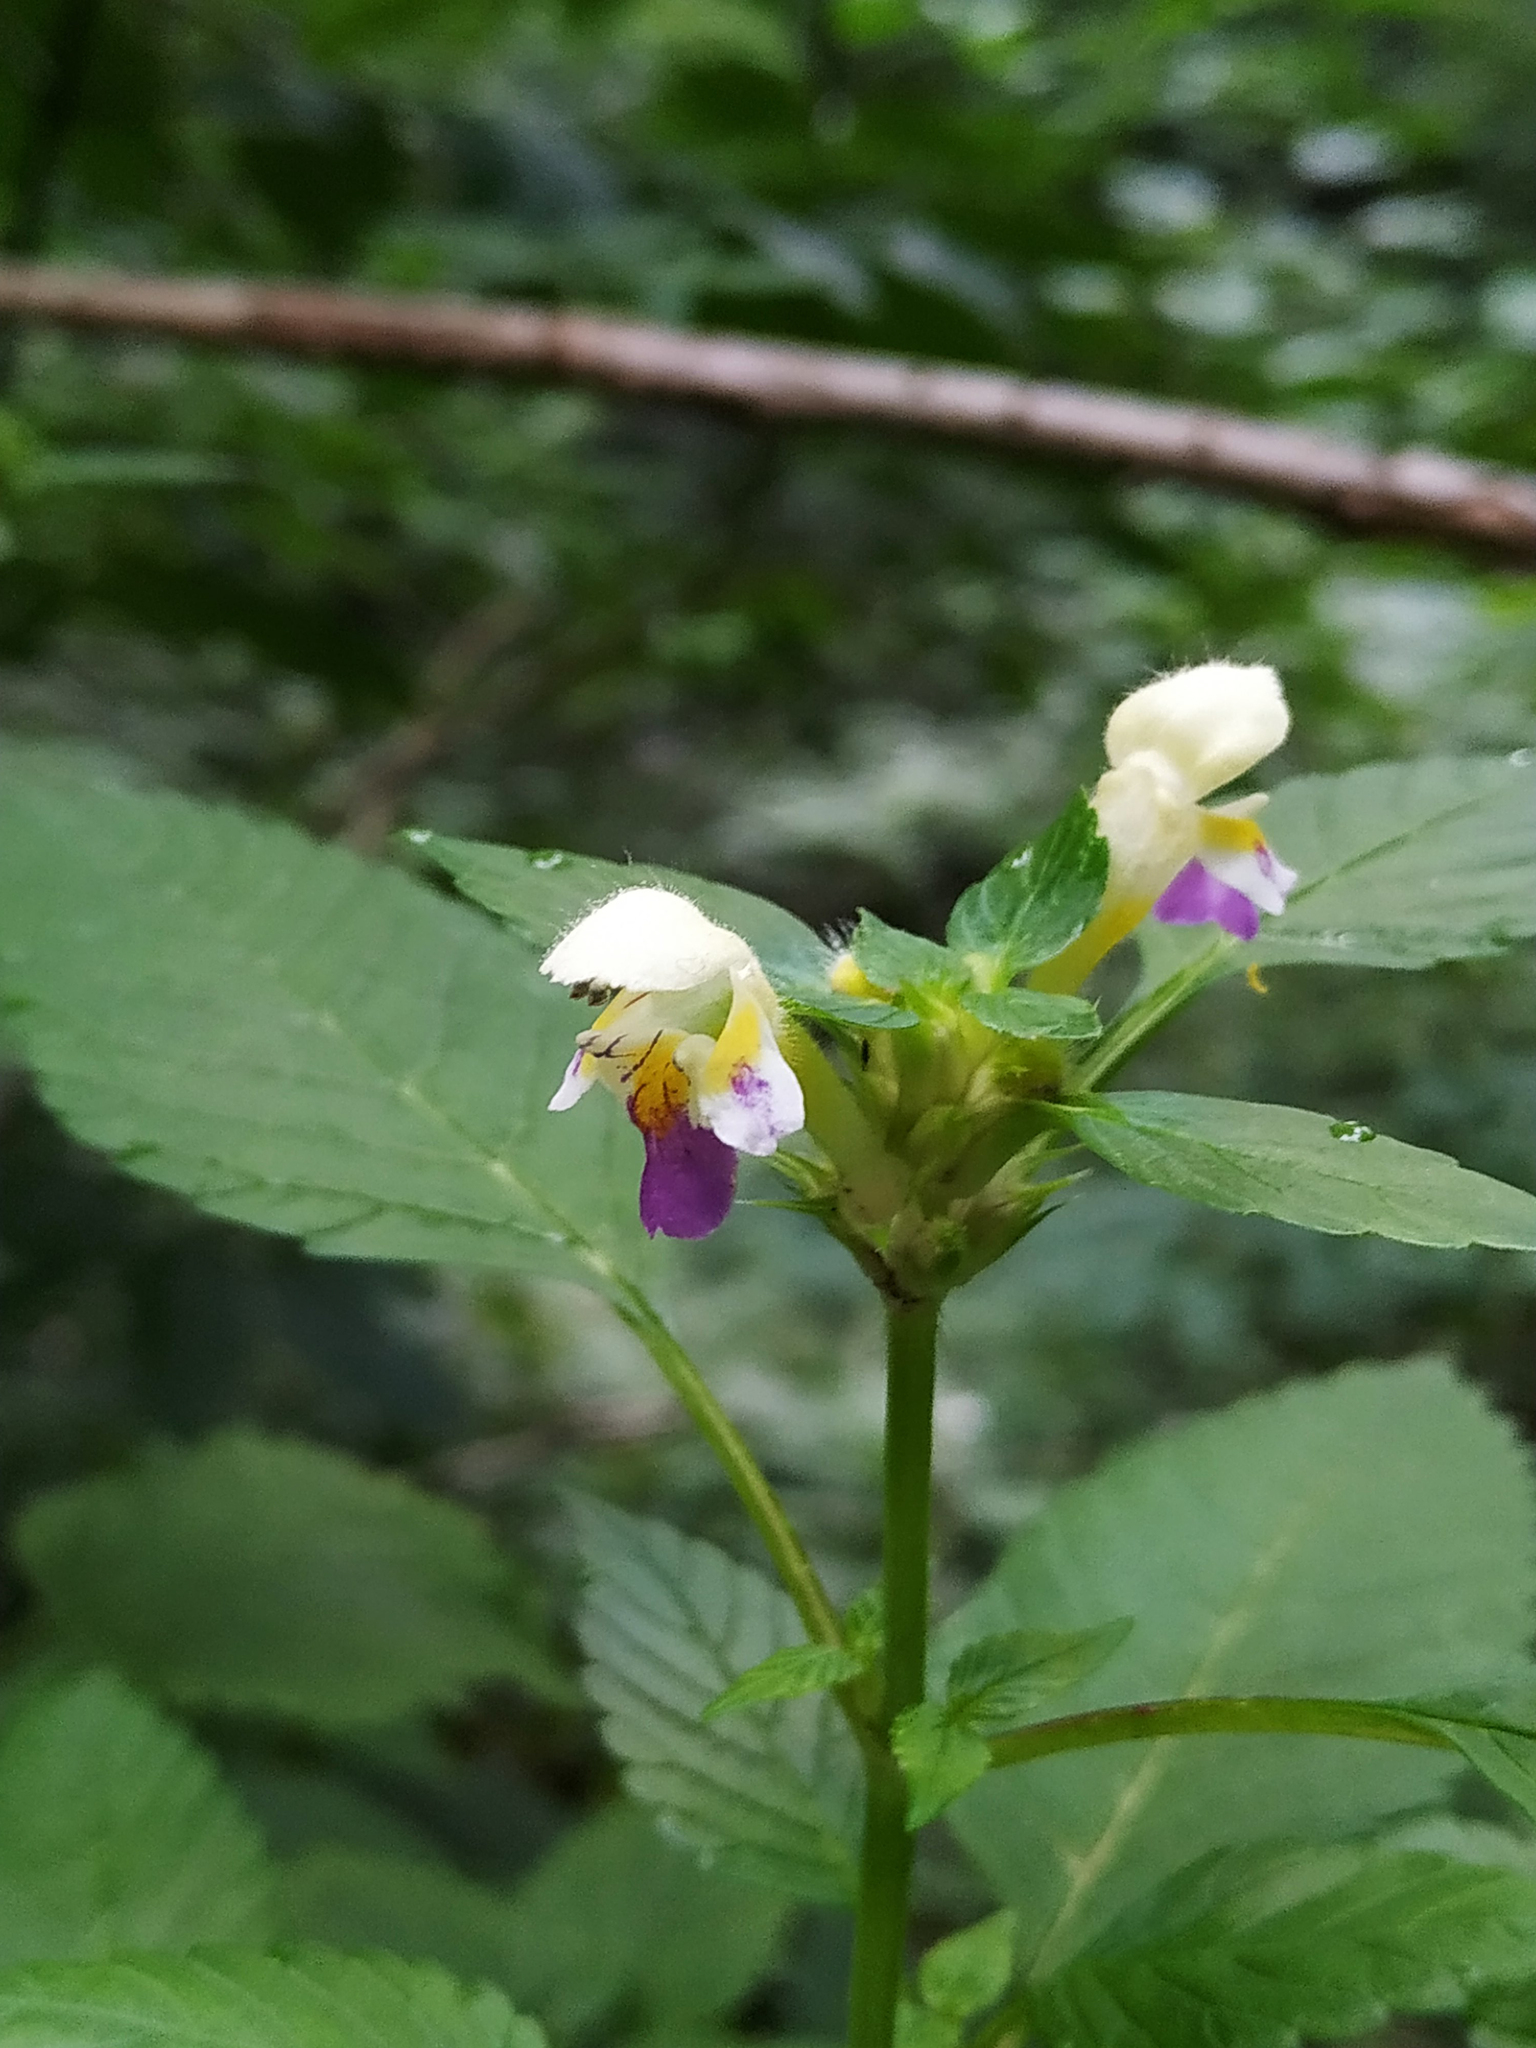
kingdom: Plantae
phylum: Tracheophyta
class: Magnoliopsida
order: Lamiales
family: Lamiaceae
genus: Galeopsis
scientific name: Galeopsis speciosa
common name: Large-flowered hemp-nettle
